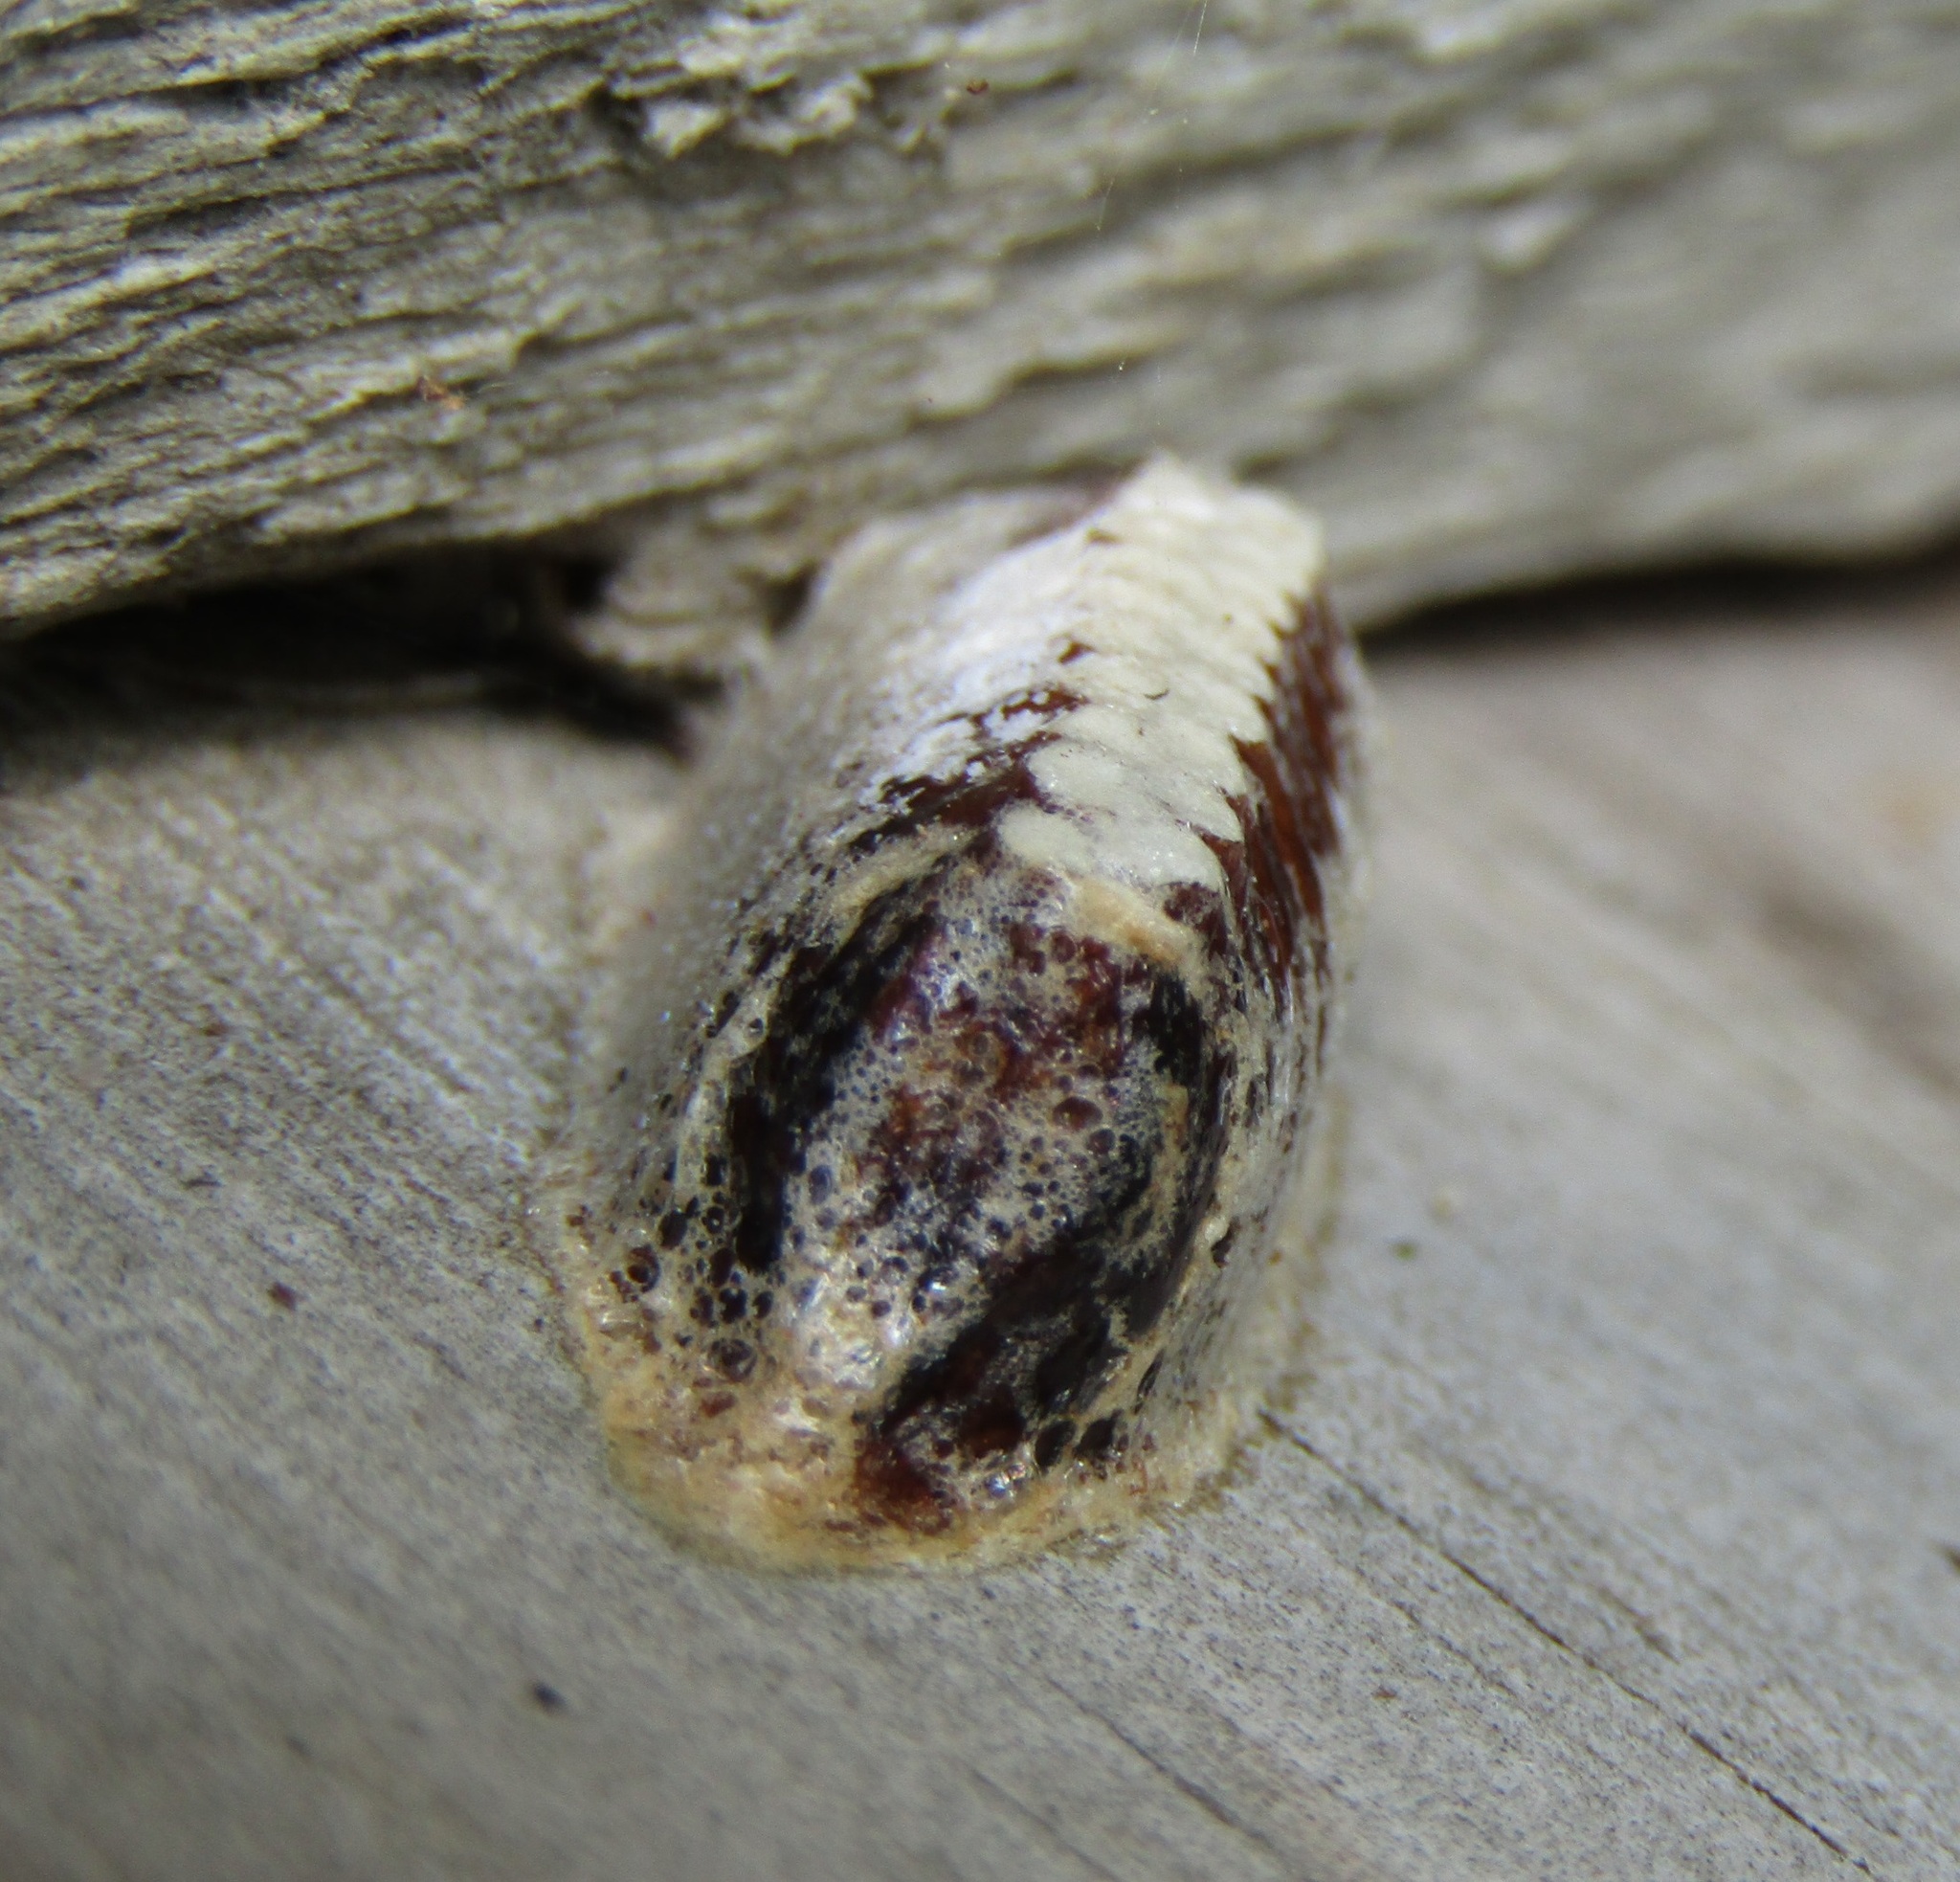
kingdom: Animalia
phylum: Arthropoda
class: Insecta
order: Mantodea
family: Mantidae
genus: Orthodera
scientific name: Orthodera novaezealandiae
